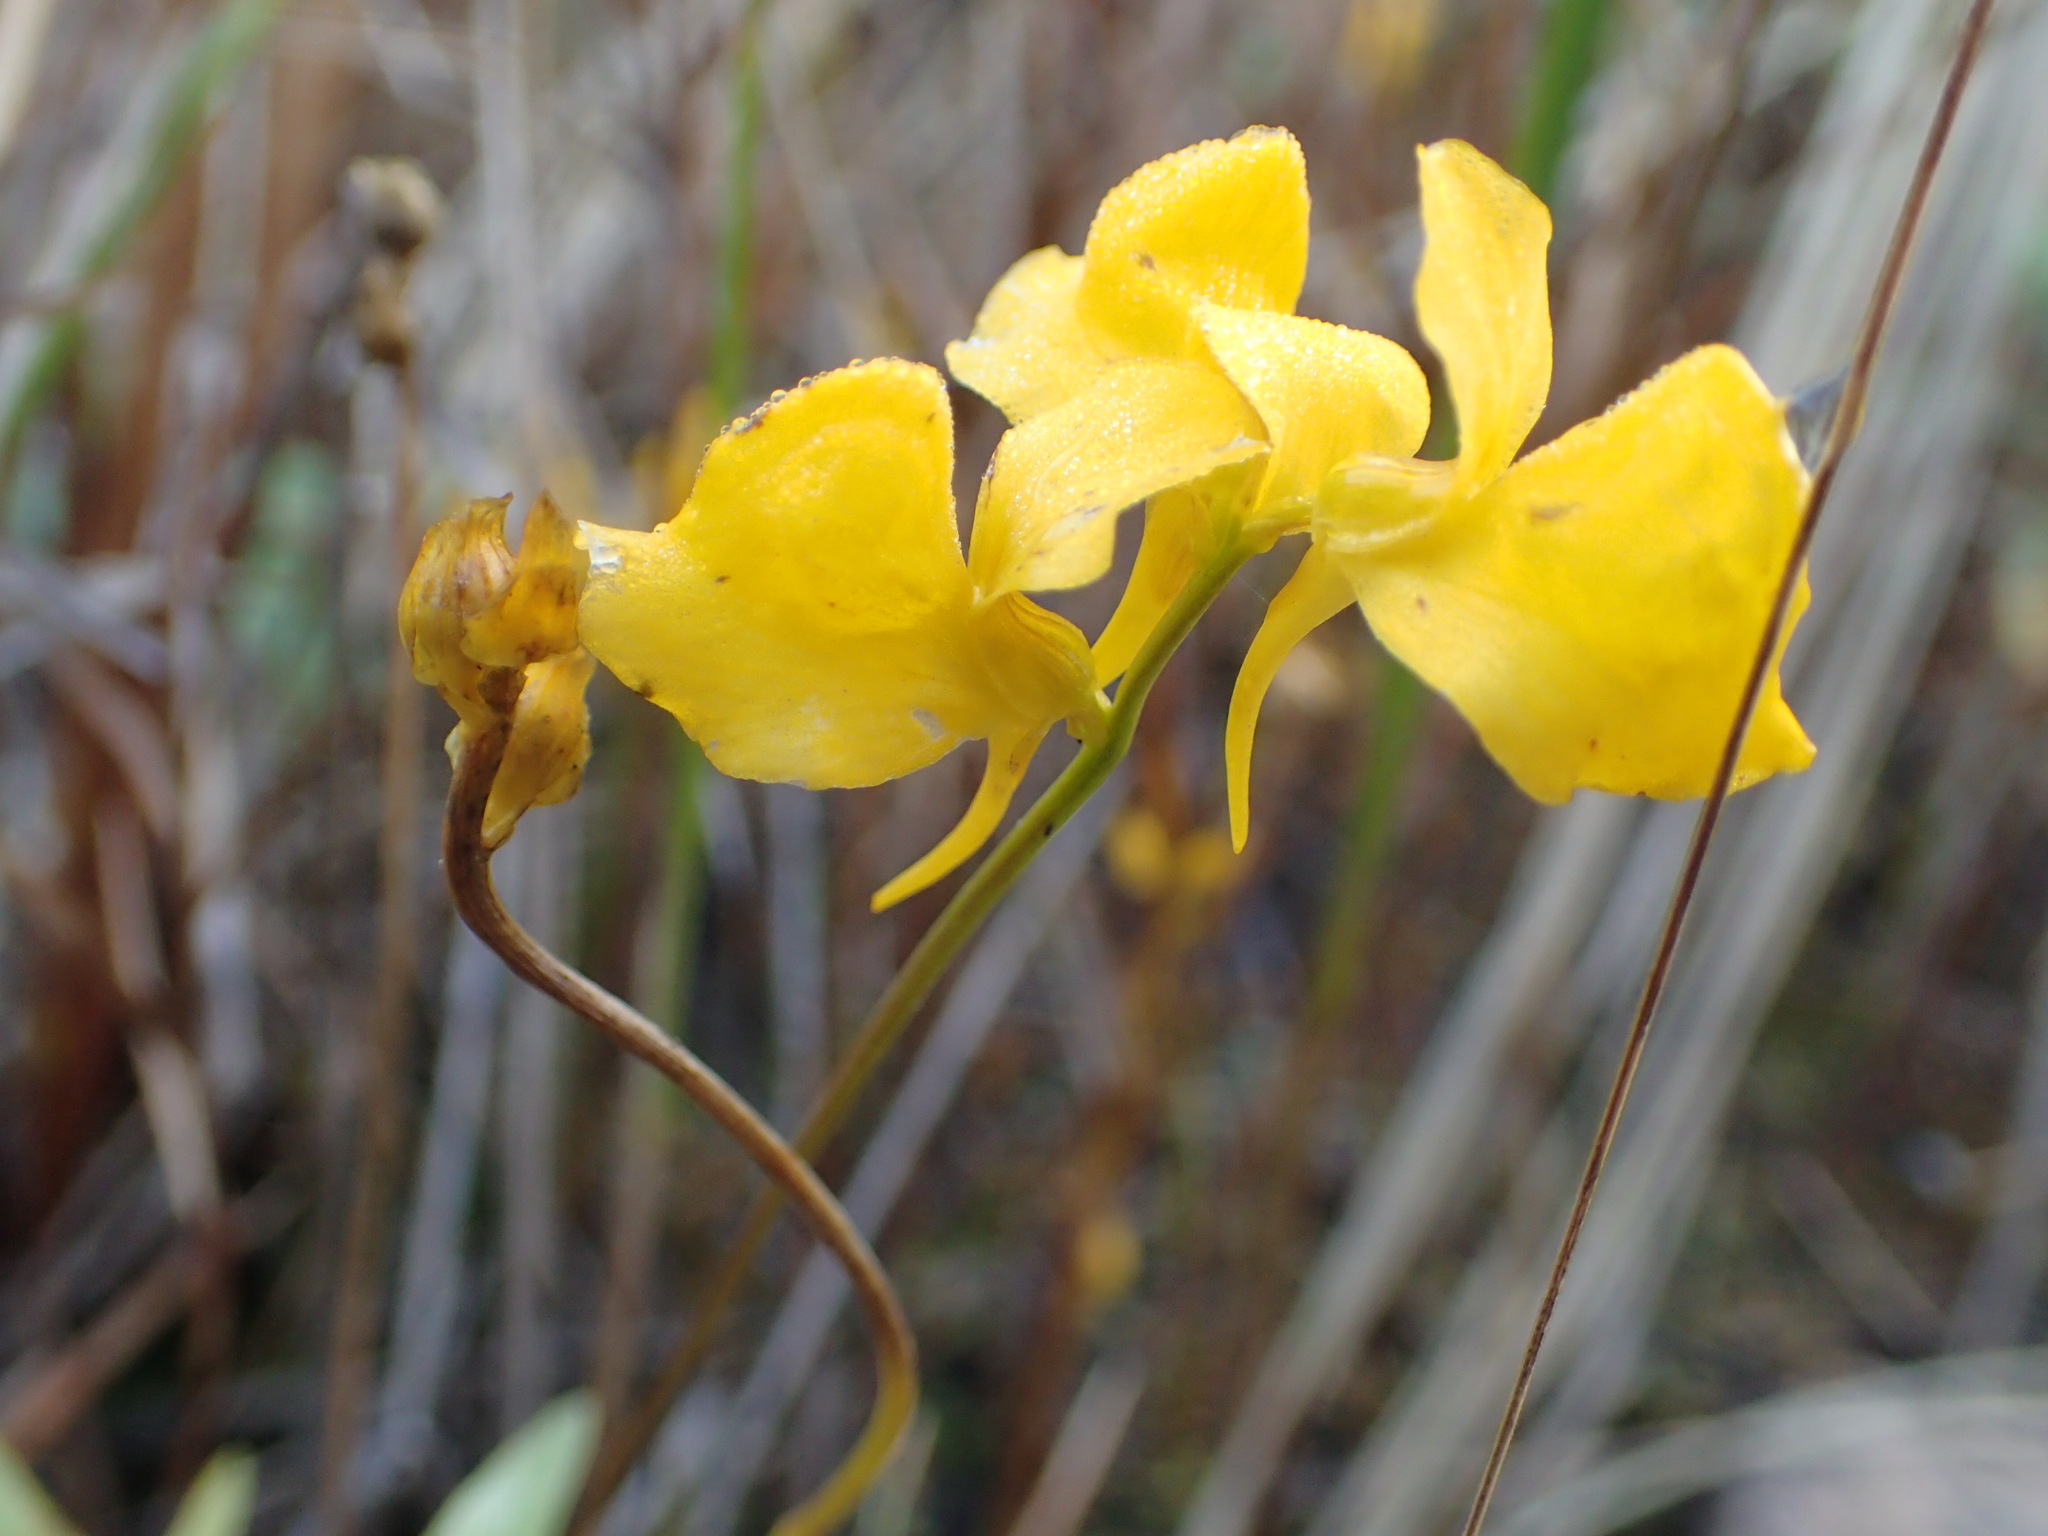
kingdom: Plantae
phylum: Tracheophyta
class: Magnoliopsida
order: Lamiales
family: Lentibulariaceae
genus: Utricularia
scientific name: Utricularia cornuta
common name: Horned bladderwort
